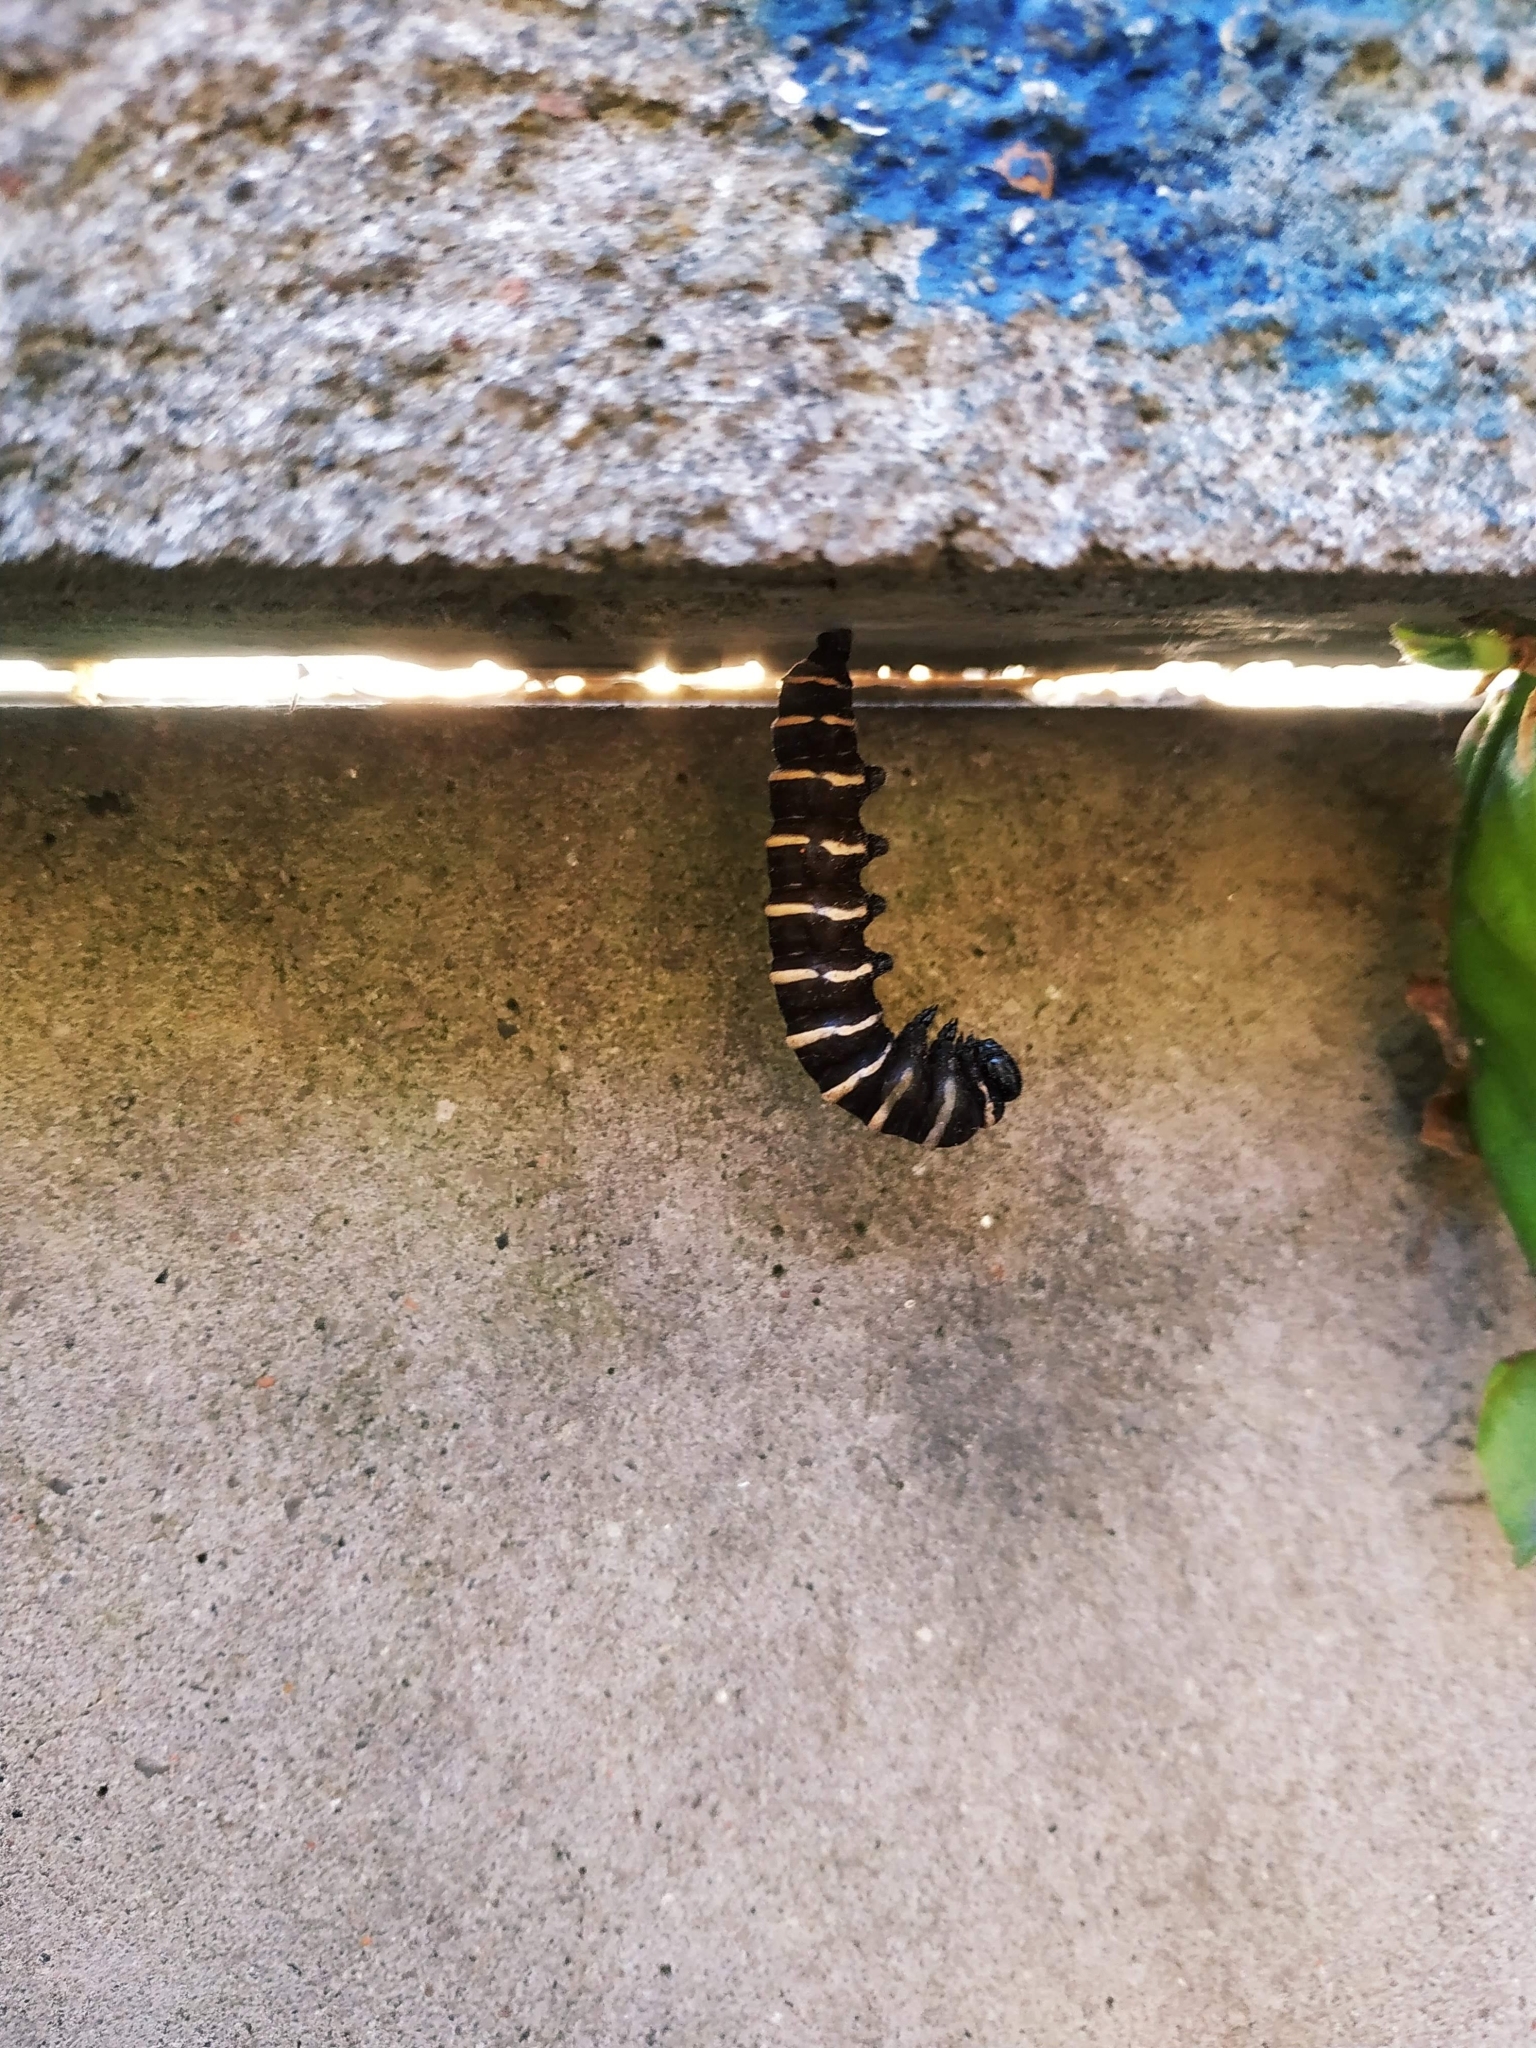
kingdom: Animalia
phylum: Arthropoda
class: Insecta
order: Lepidoptera
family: Nymphalidae
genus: Methona
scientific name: Methona themisto
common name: Themisto amberwing
